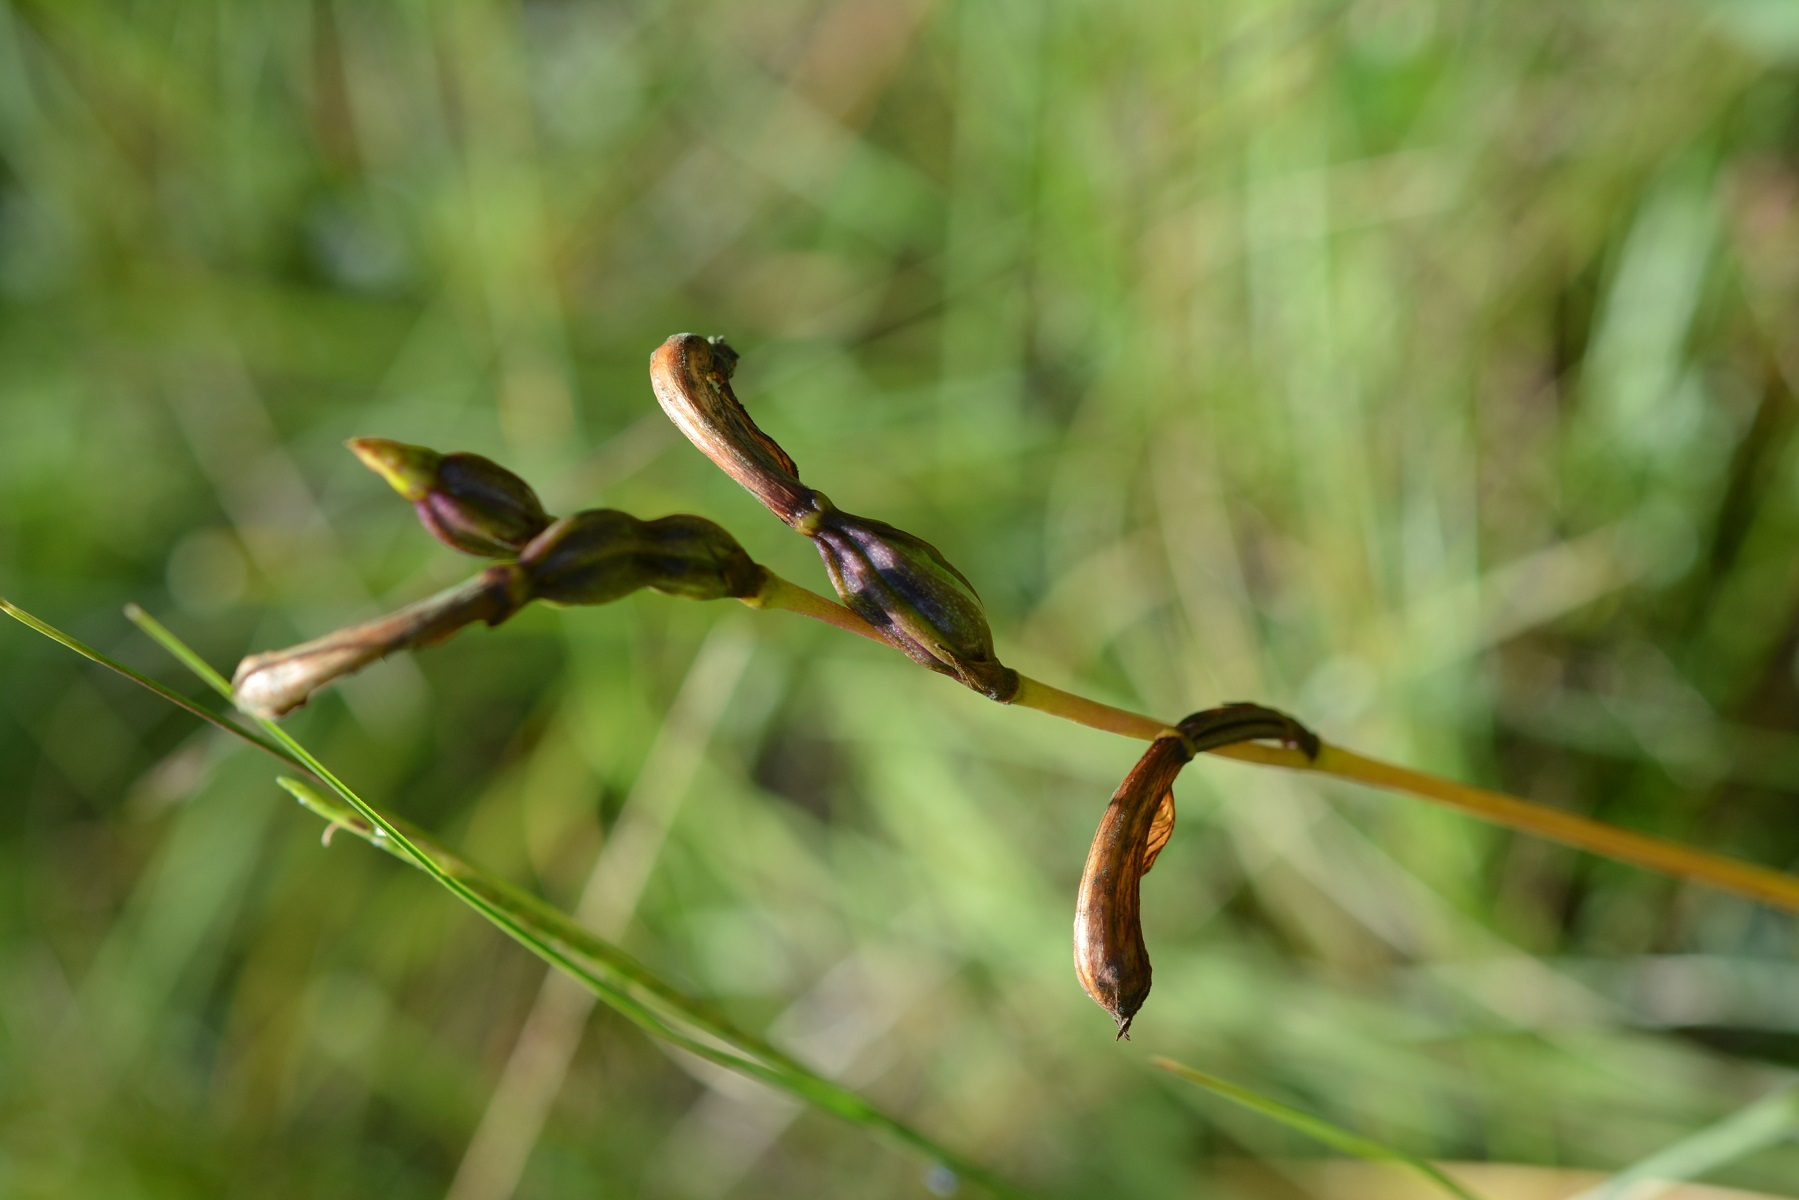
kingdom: Plantae
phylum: Tracheophyta
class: Liliopsida
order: Asparagales
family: Orchidaceae
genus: Bletia
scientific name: Bletia campanulata
